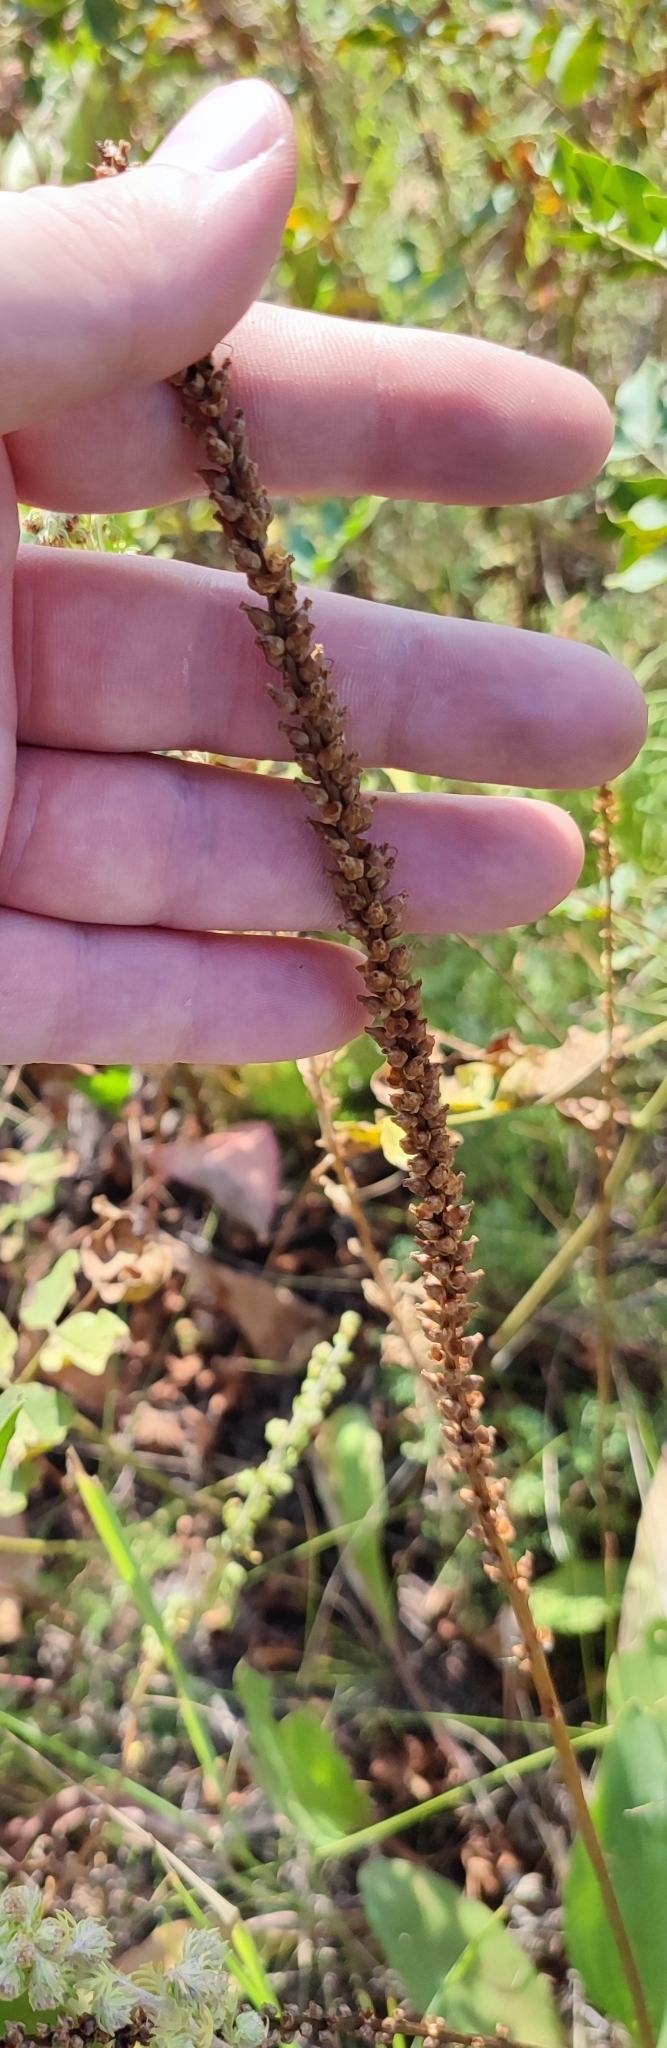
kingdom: Plantae
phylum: Tracheophyta
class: Magnoliopsida
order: Lamiales
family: Plantaginaceae
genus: Plantago
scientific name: Plantago cornuti
